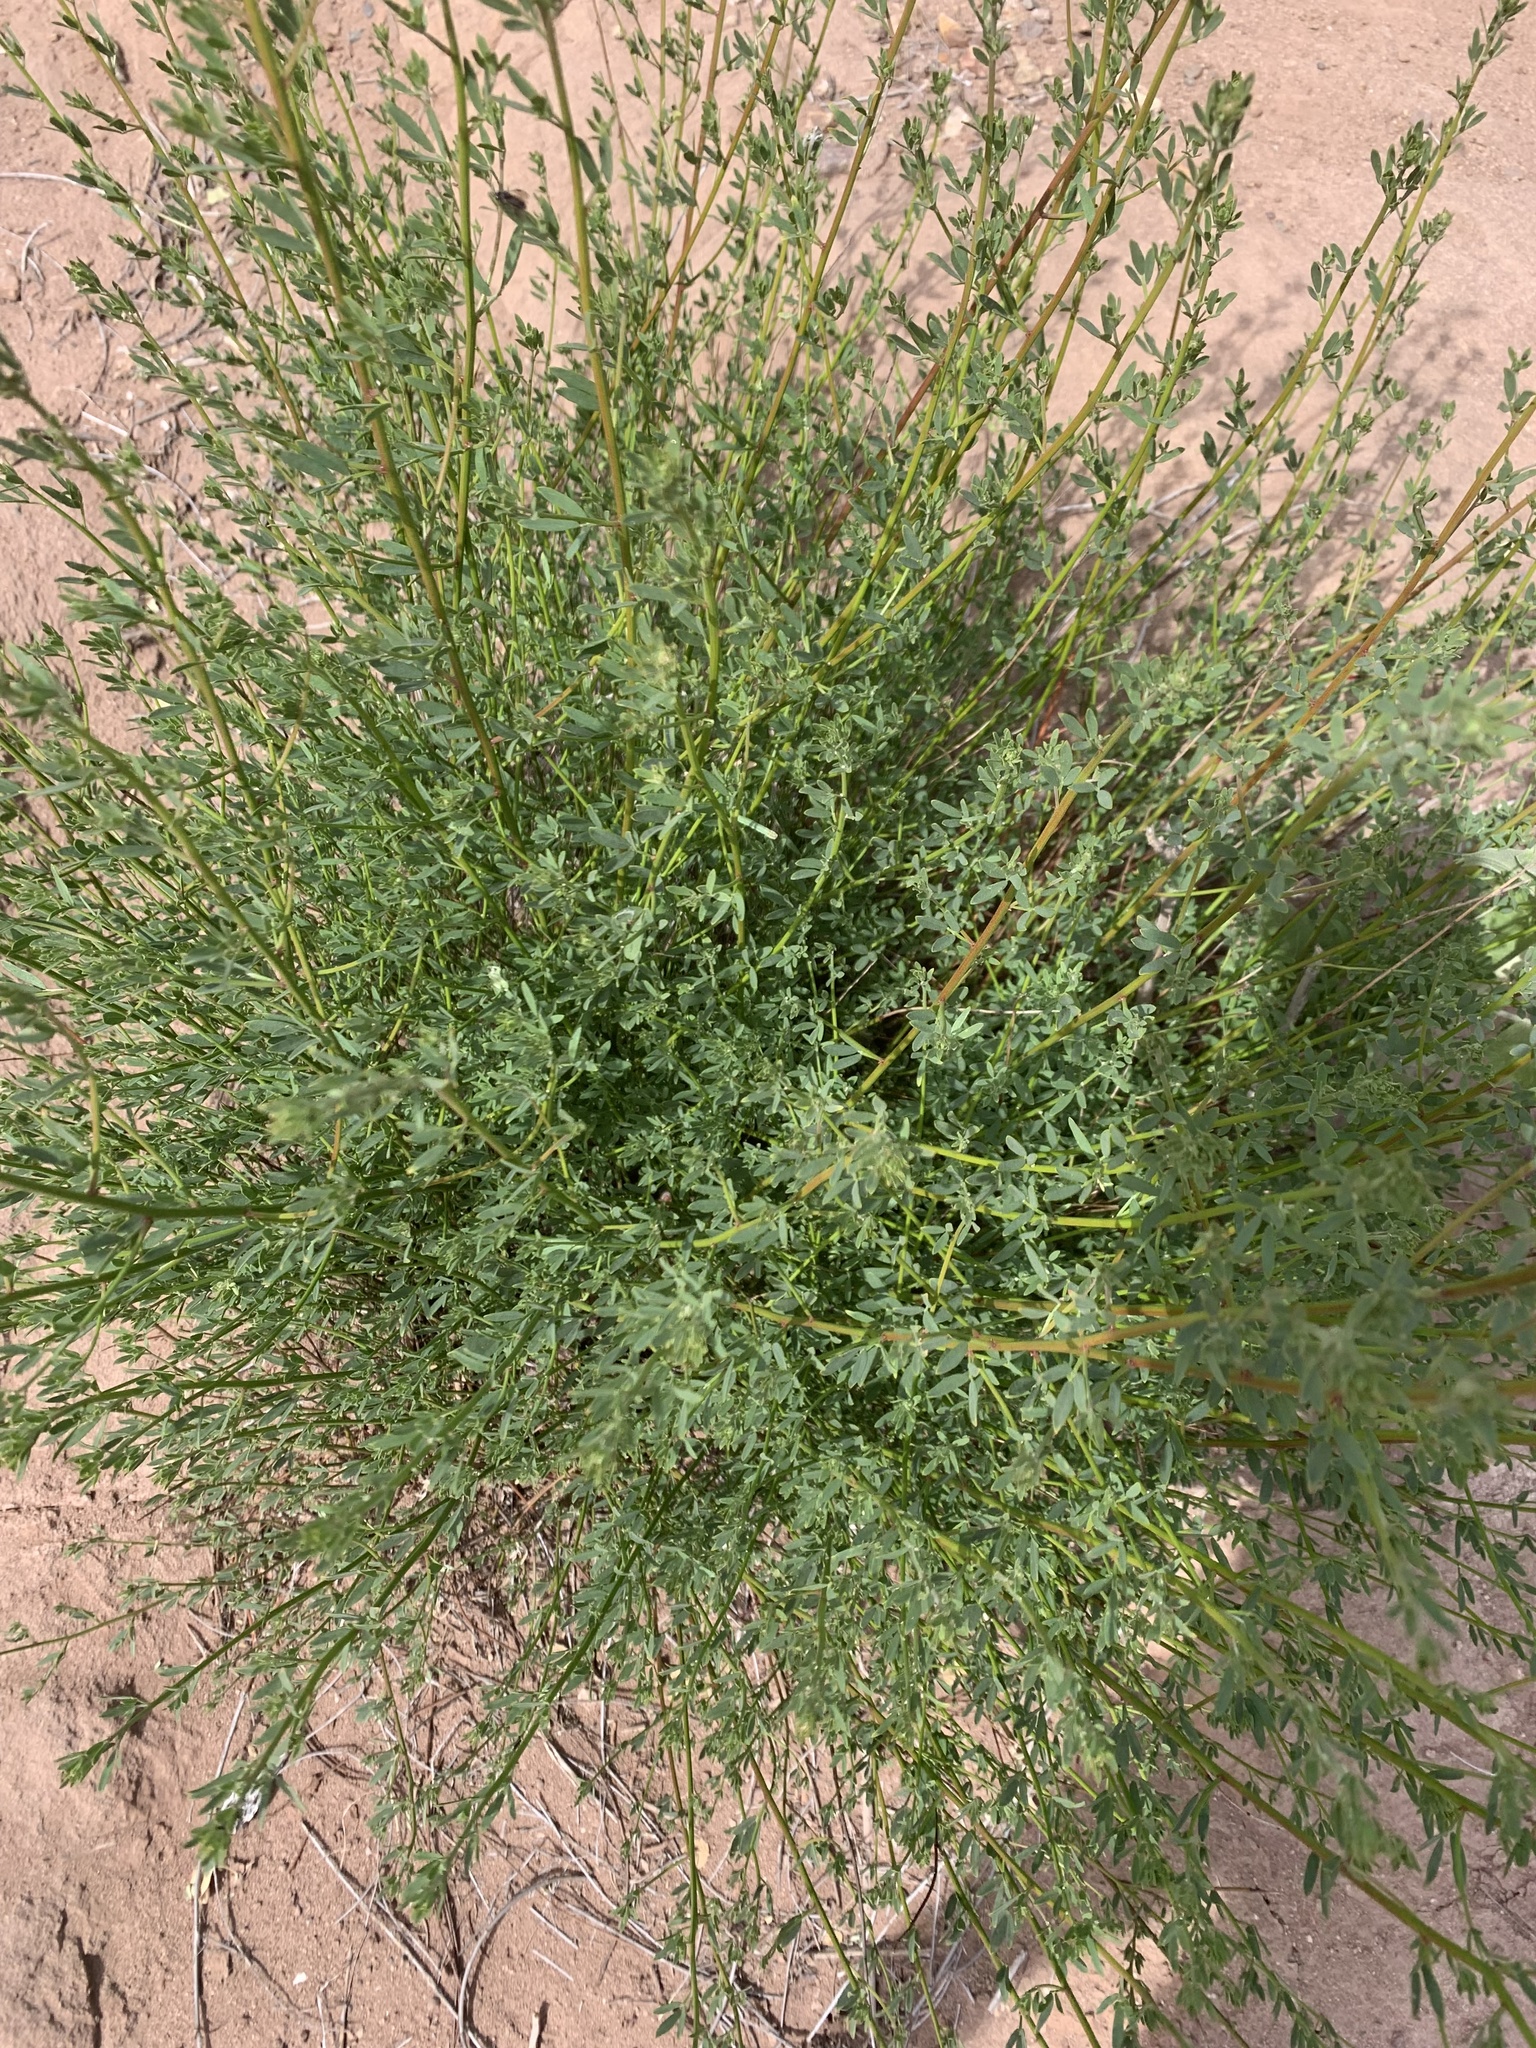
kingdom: Plantae
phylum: Tracheophyta
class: Magnoliopsida
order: Fabales
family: Fabaceae
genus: Acmispon
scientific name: Acmispon glaber
